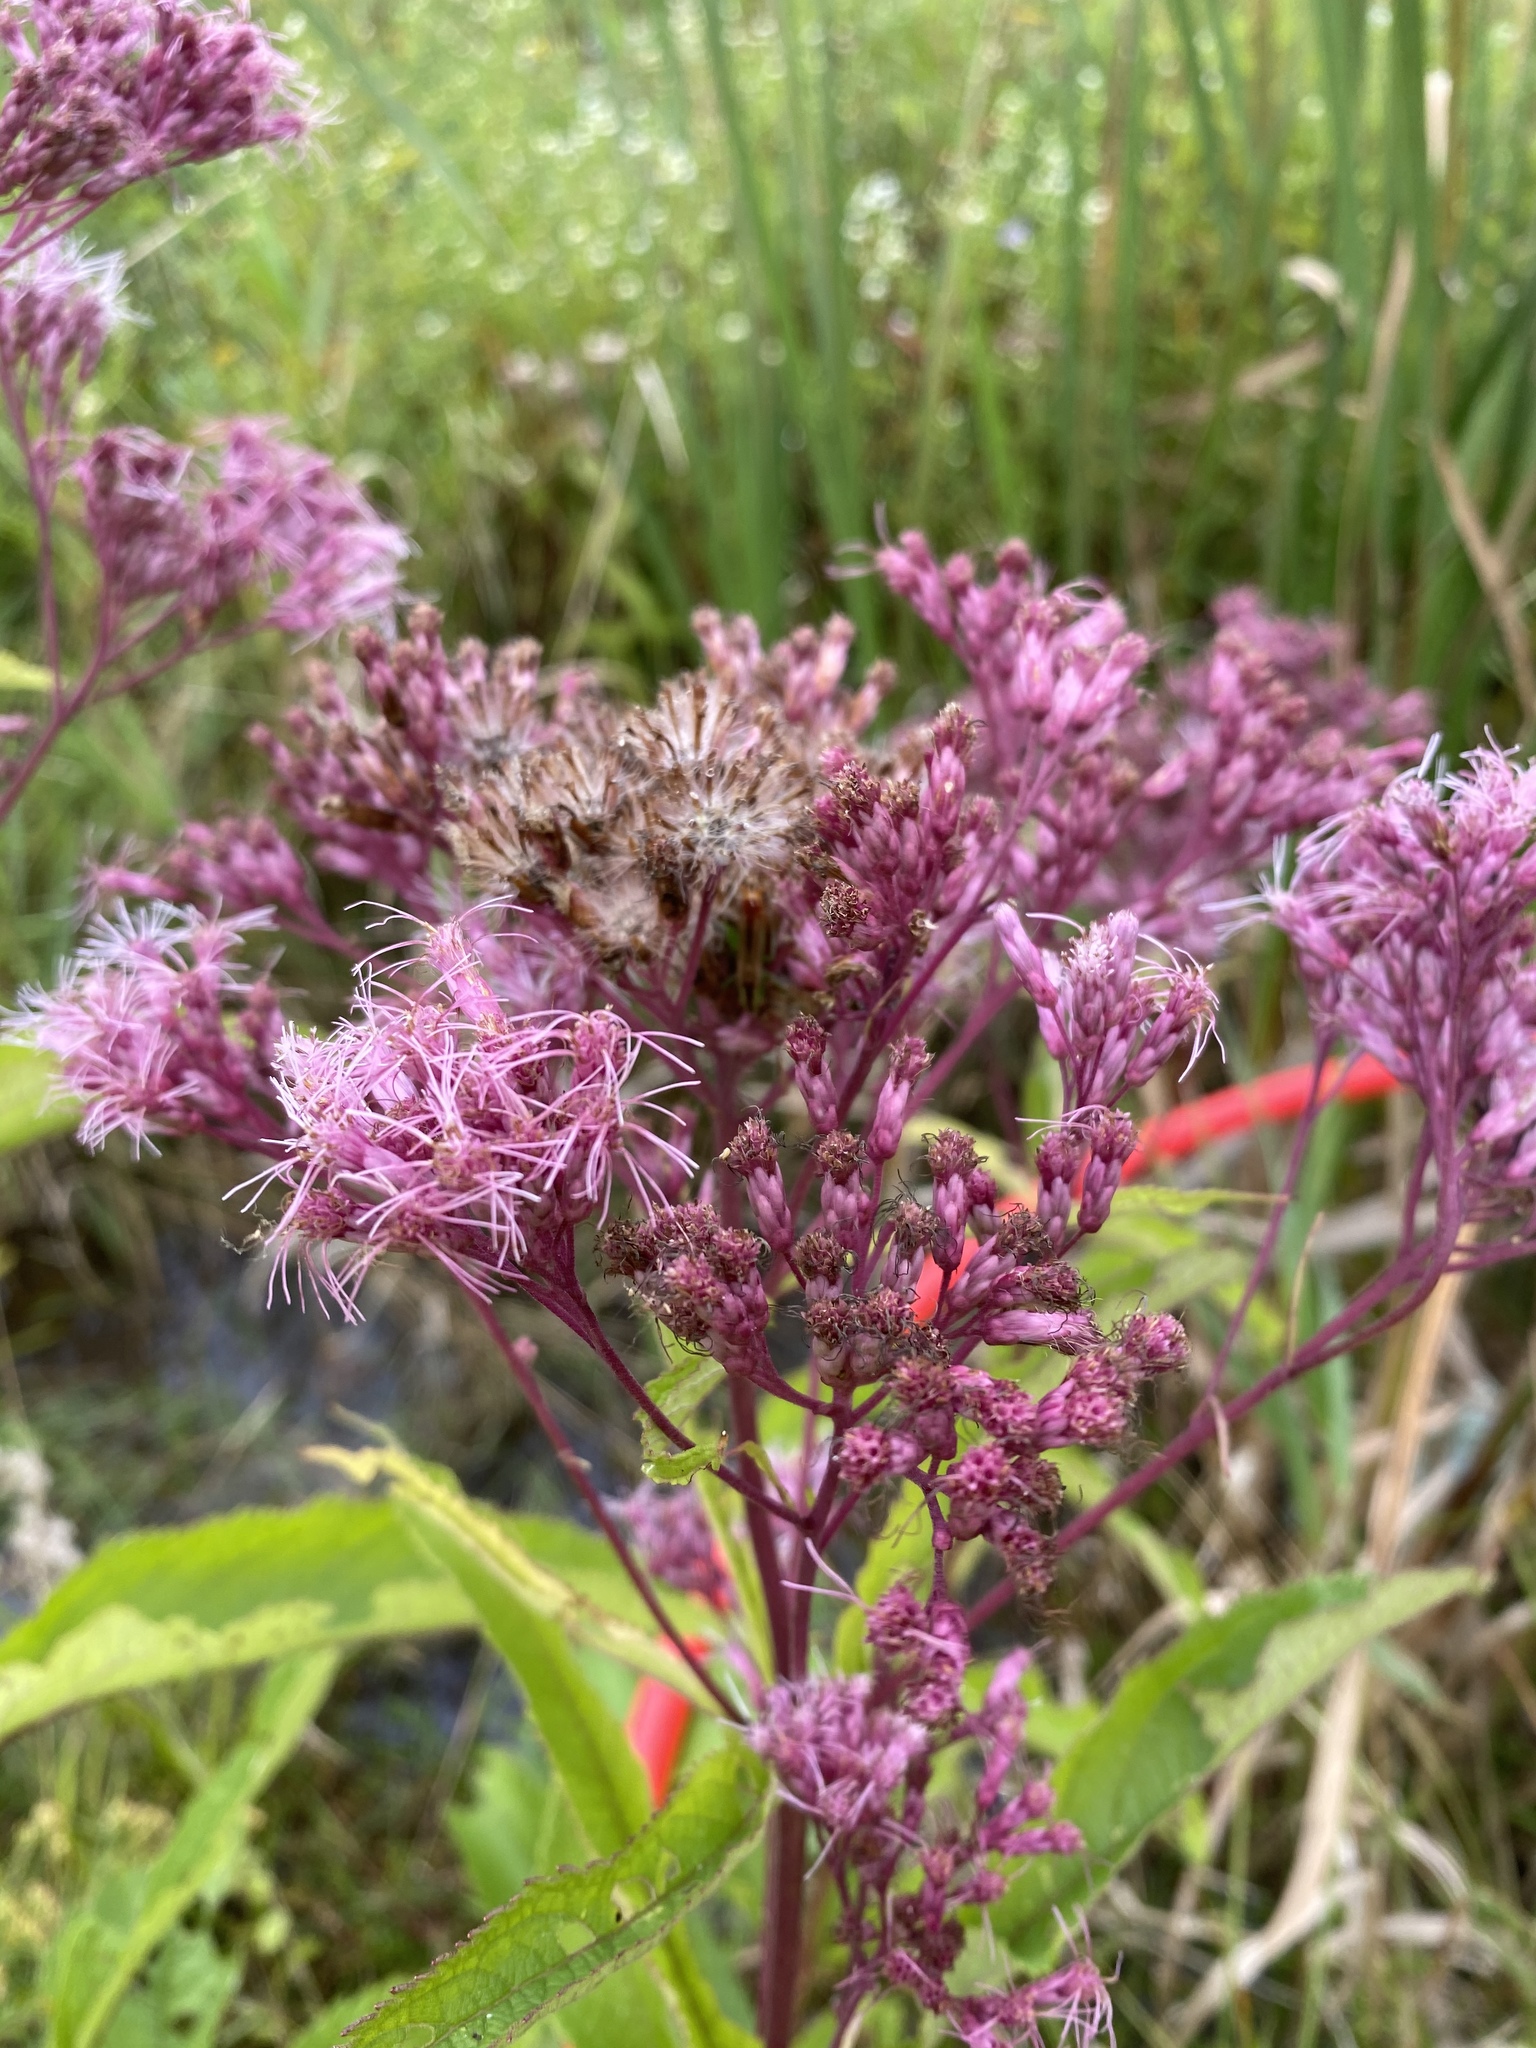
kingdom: Plantae
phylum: Tracheophyta
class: Magnoliopsida
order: Asterales
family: Asteraceae
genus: Eutrochium
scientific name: Eutrochium maculatum
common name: Spotted joe pye weed
